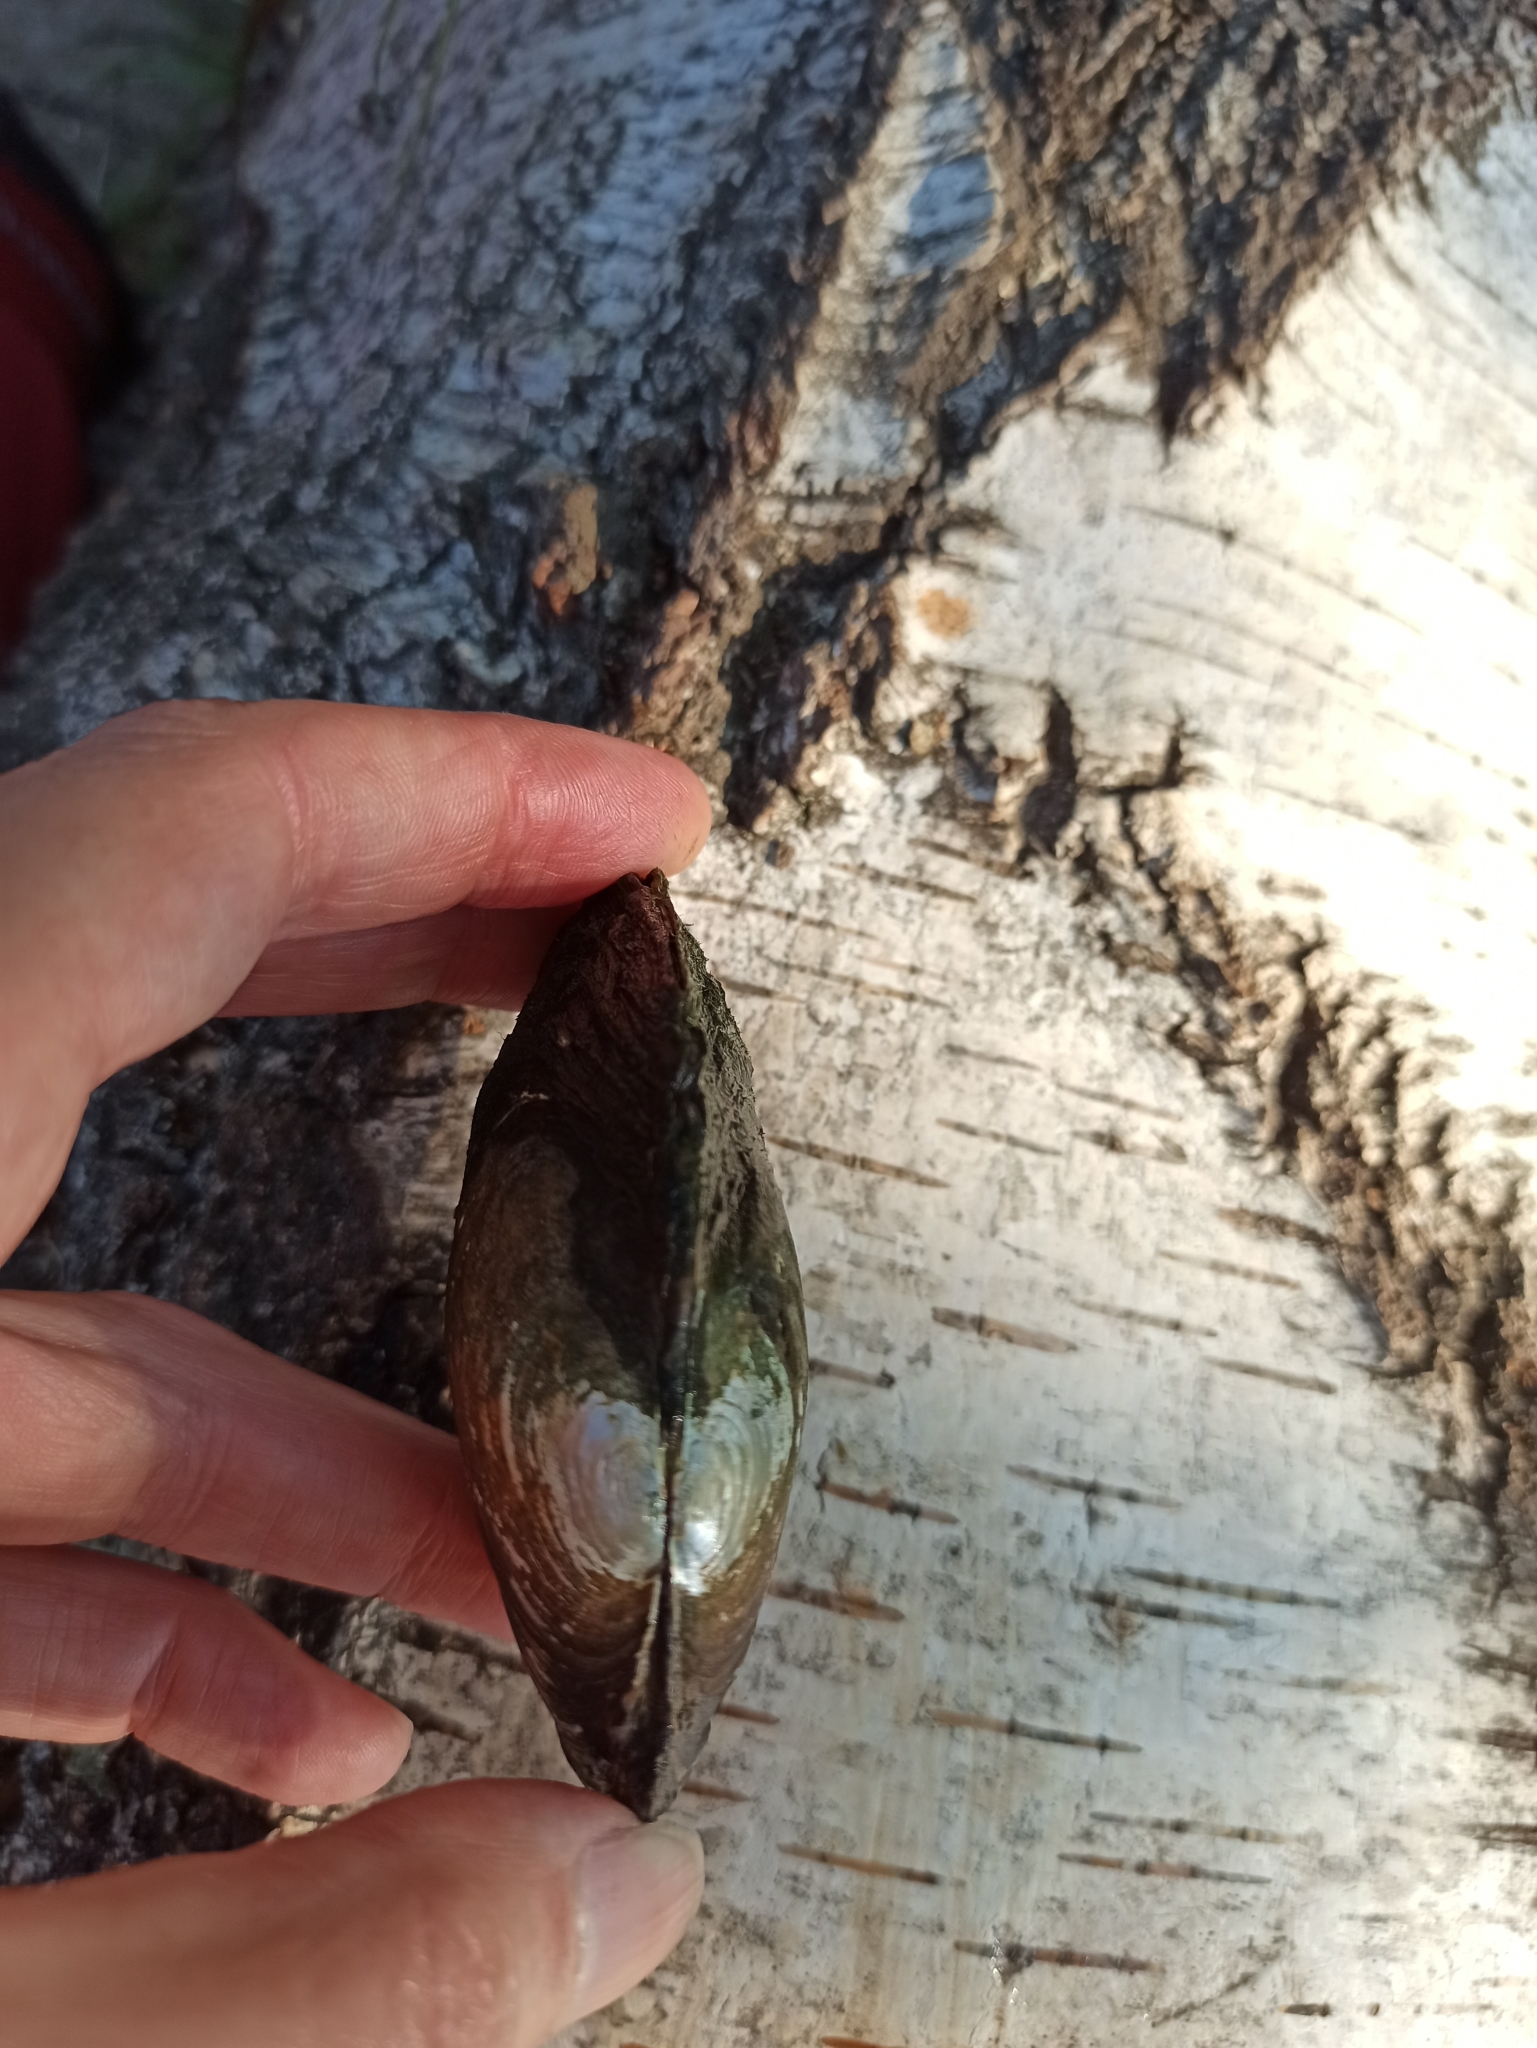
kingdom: Animalia
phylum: Mollusca
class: Bivalvia
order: Unionida
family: Unionidae
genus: Anodonta
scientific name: Anodonta anatina
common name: Duck mussel
